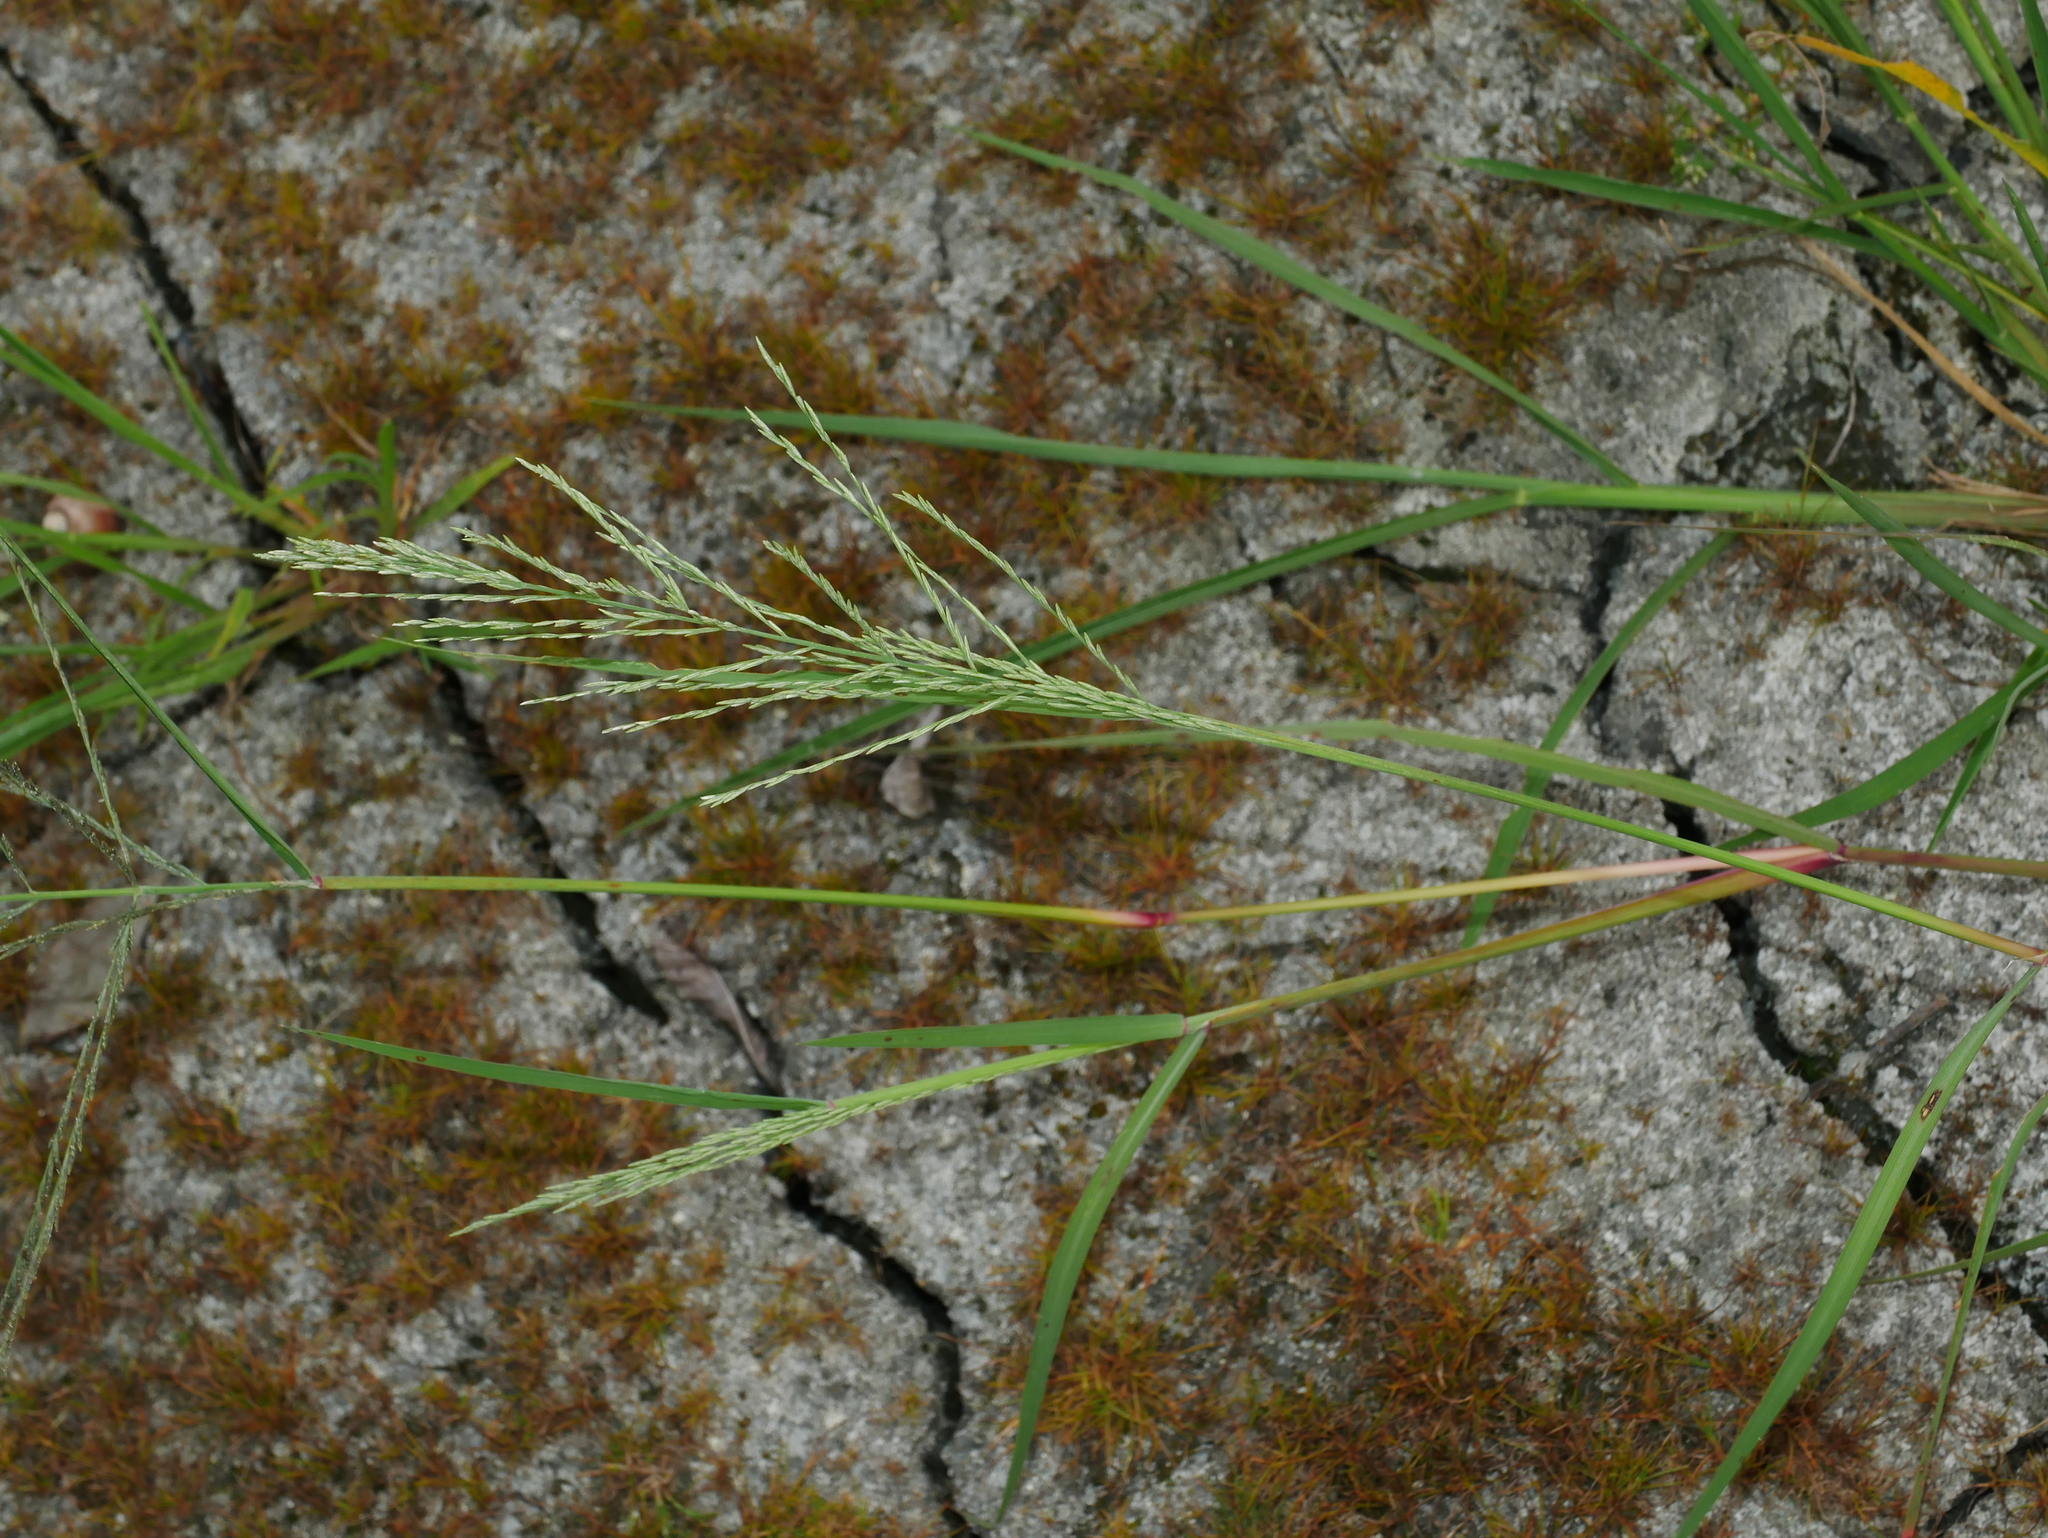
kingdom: Plantae
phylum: Tracheophyta
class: Liliopsida
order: Poales
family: Poaceae
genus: Diplachne
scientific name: Diplachne fusca
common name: Brown beetle grass
